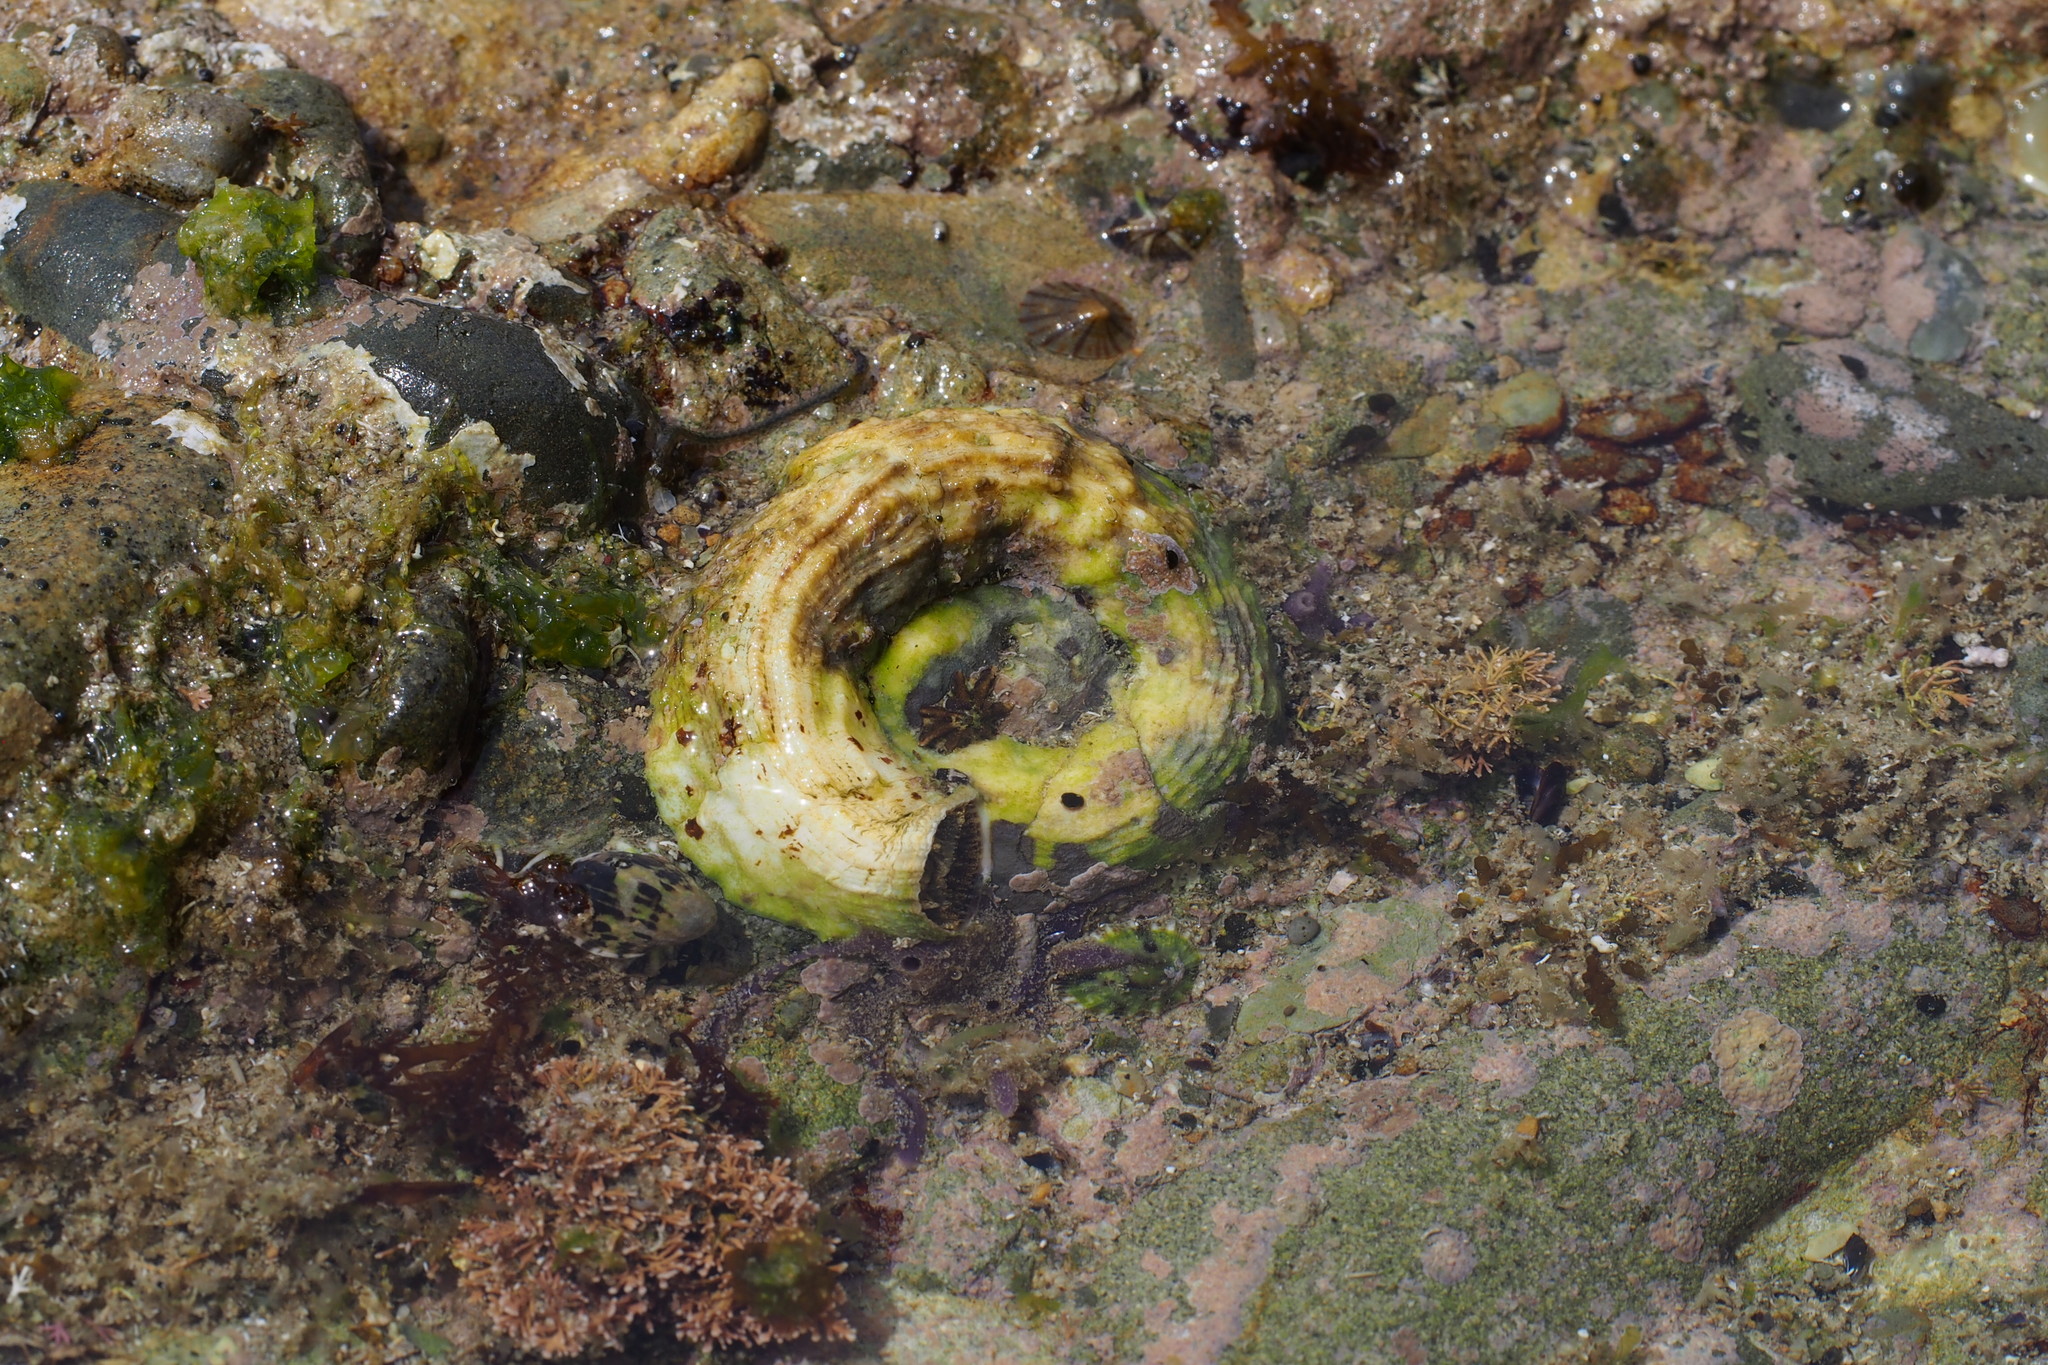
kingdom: Animalia
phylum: Mollusca
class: Gastropoda
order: Littorinimorpha
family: Vermetidae
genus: Thylacodes
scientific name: Thylacodes adamsii
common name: Scaly worm shell
